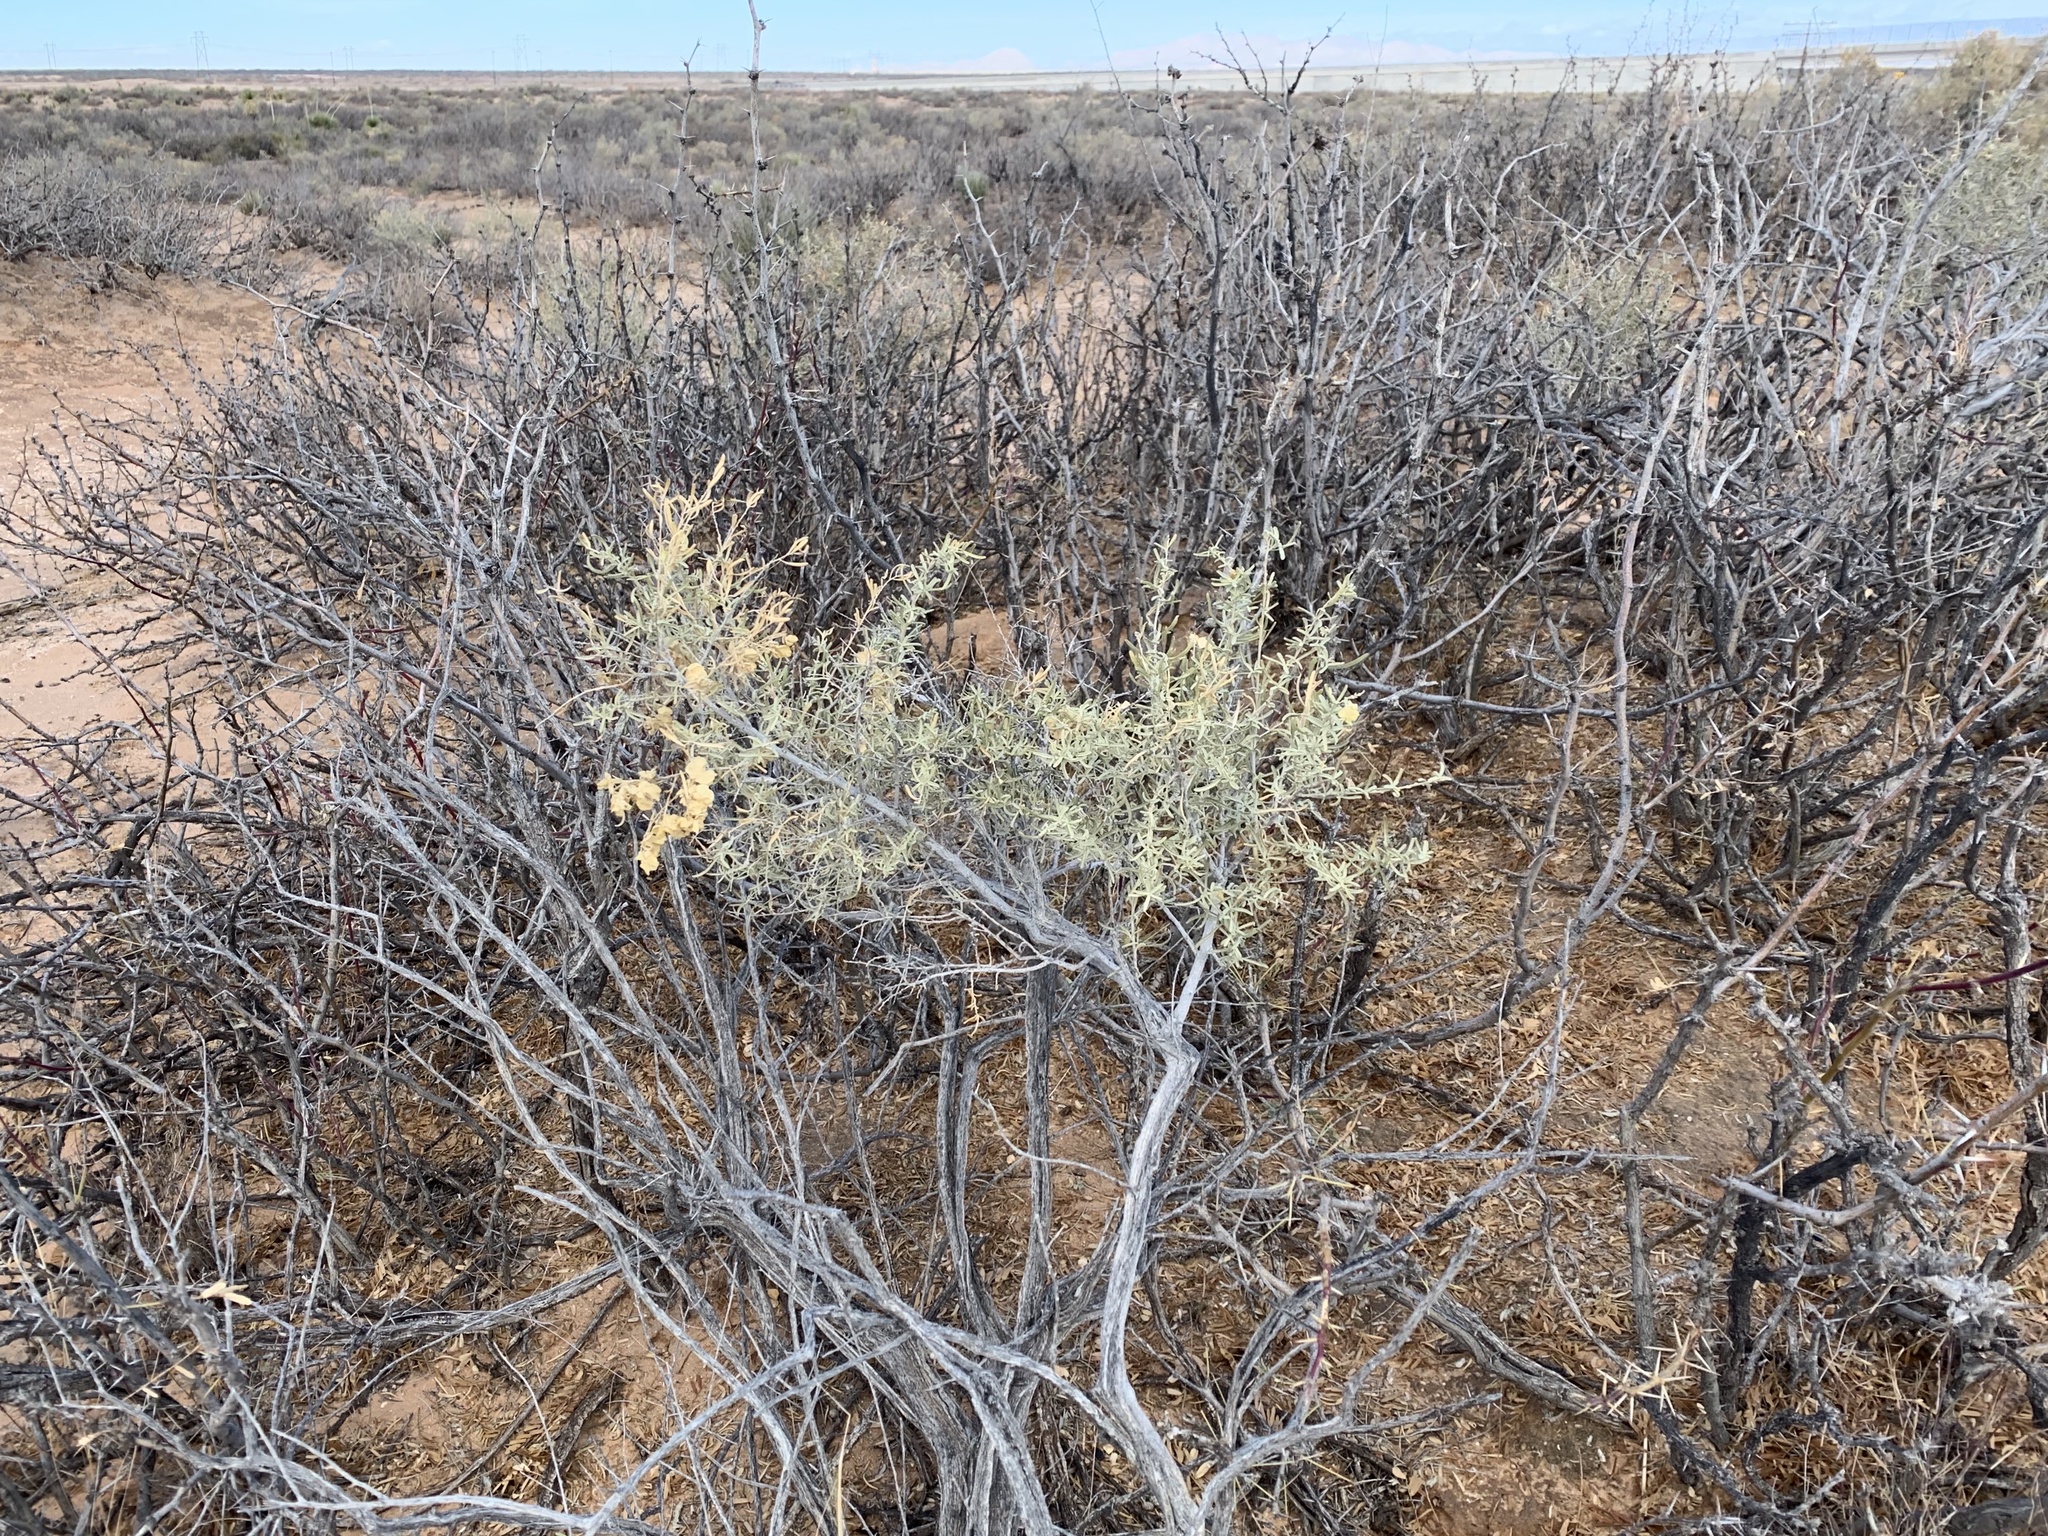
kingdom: Plantae
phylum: Tracheophyta
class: Magnoliopsida
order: Caryophyllales
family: Amaranthaceae
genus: Atriplex
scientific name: Atriplex canescens
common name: Four-wing saltbush
